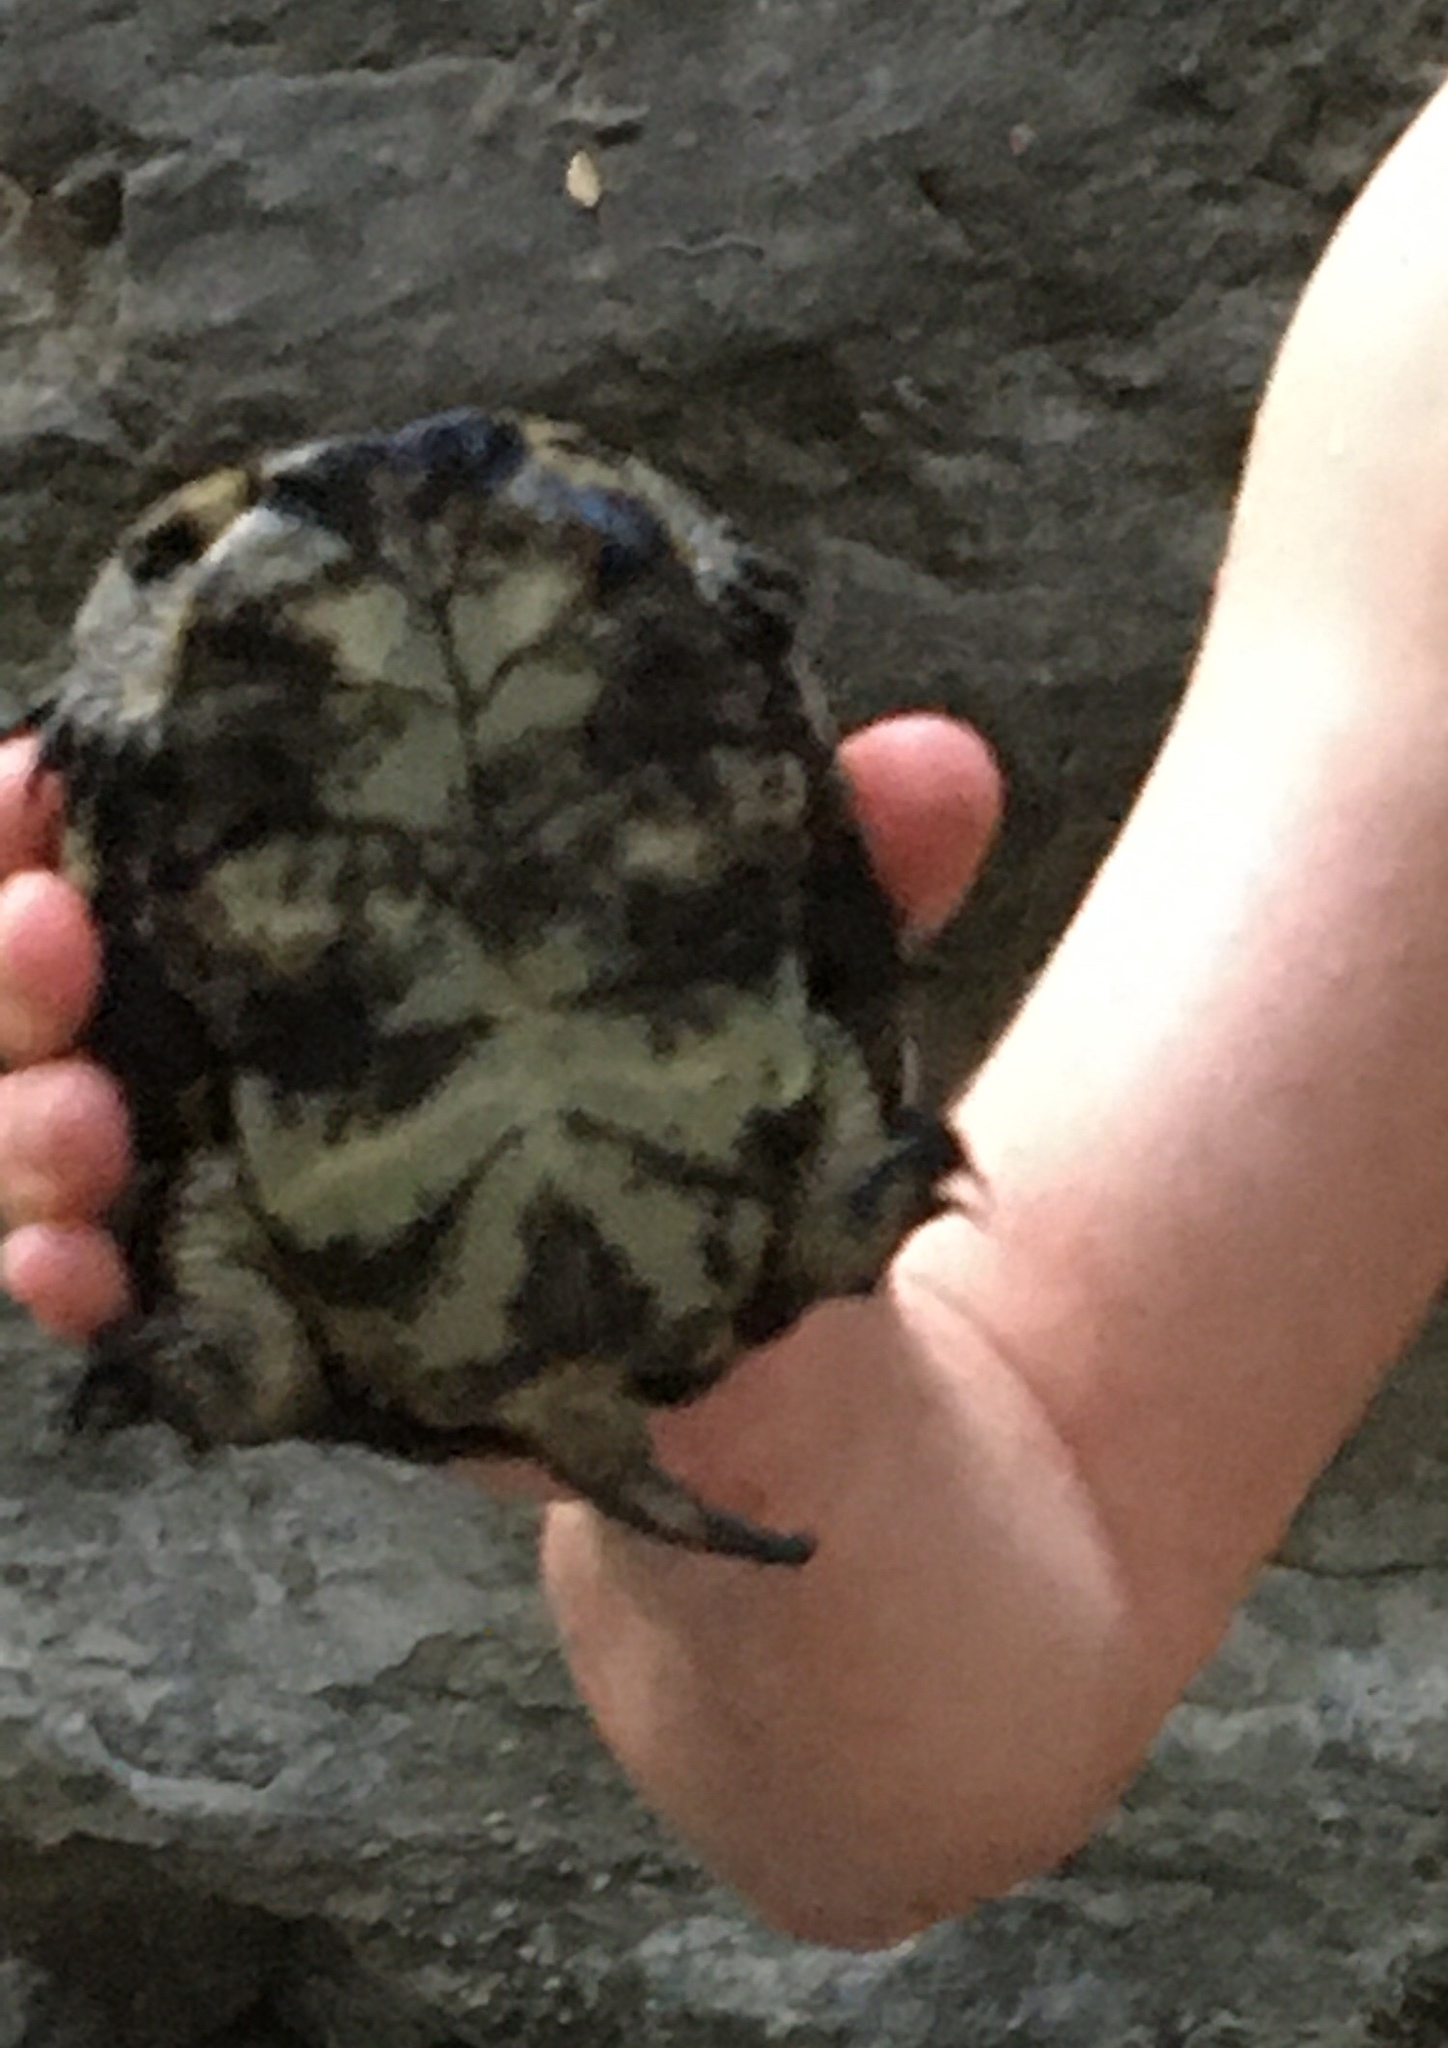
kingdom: Animalia
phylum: Chordata
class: Testudines
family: Emydidae
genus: Actinemys
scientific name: Actinemys pallida
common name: Southern pacific pond turtle
